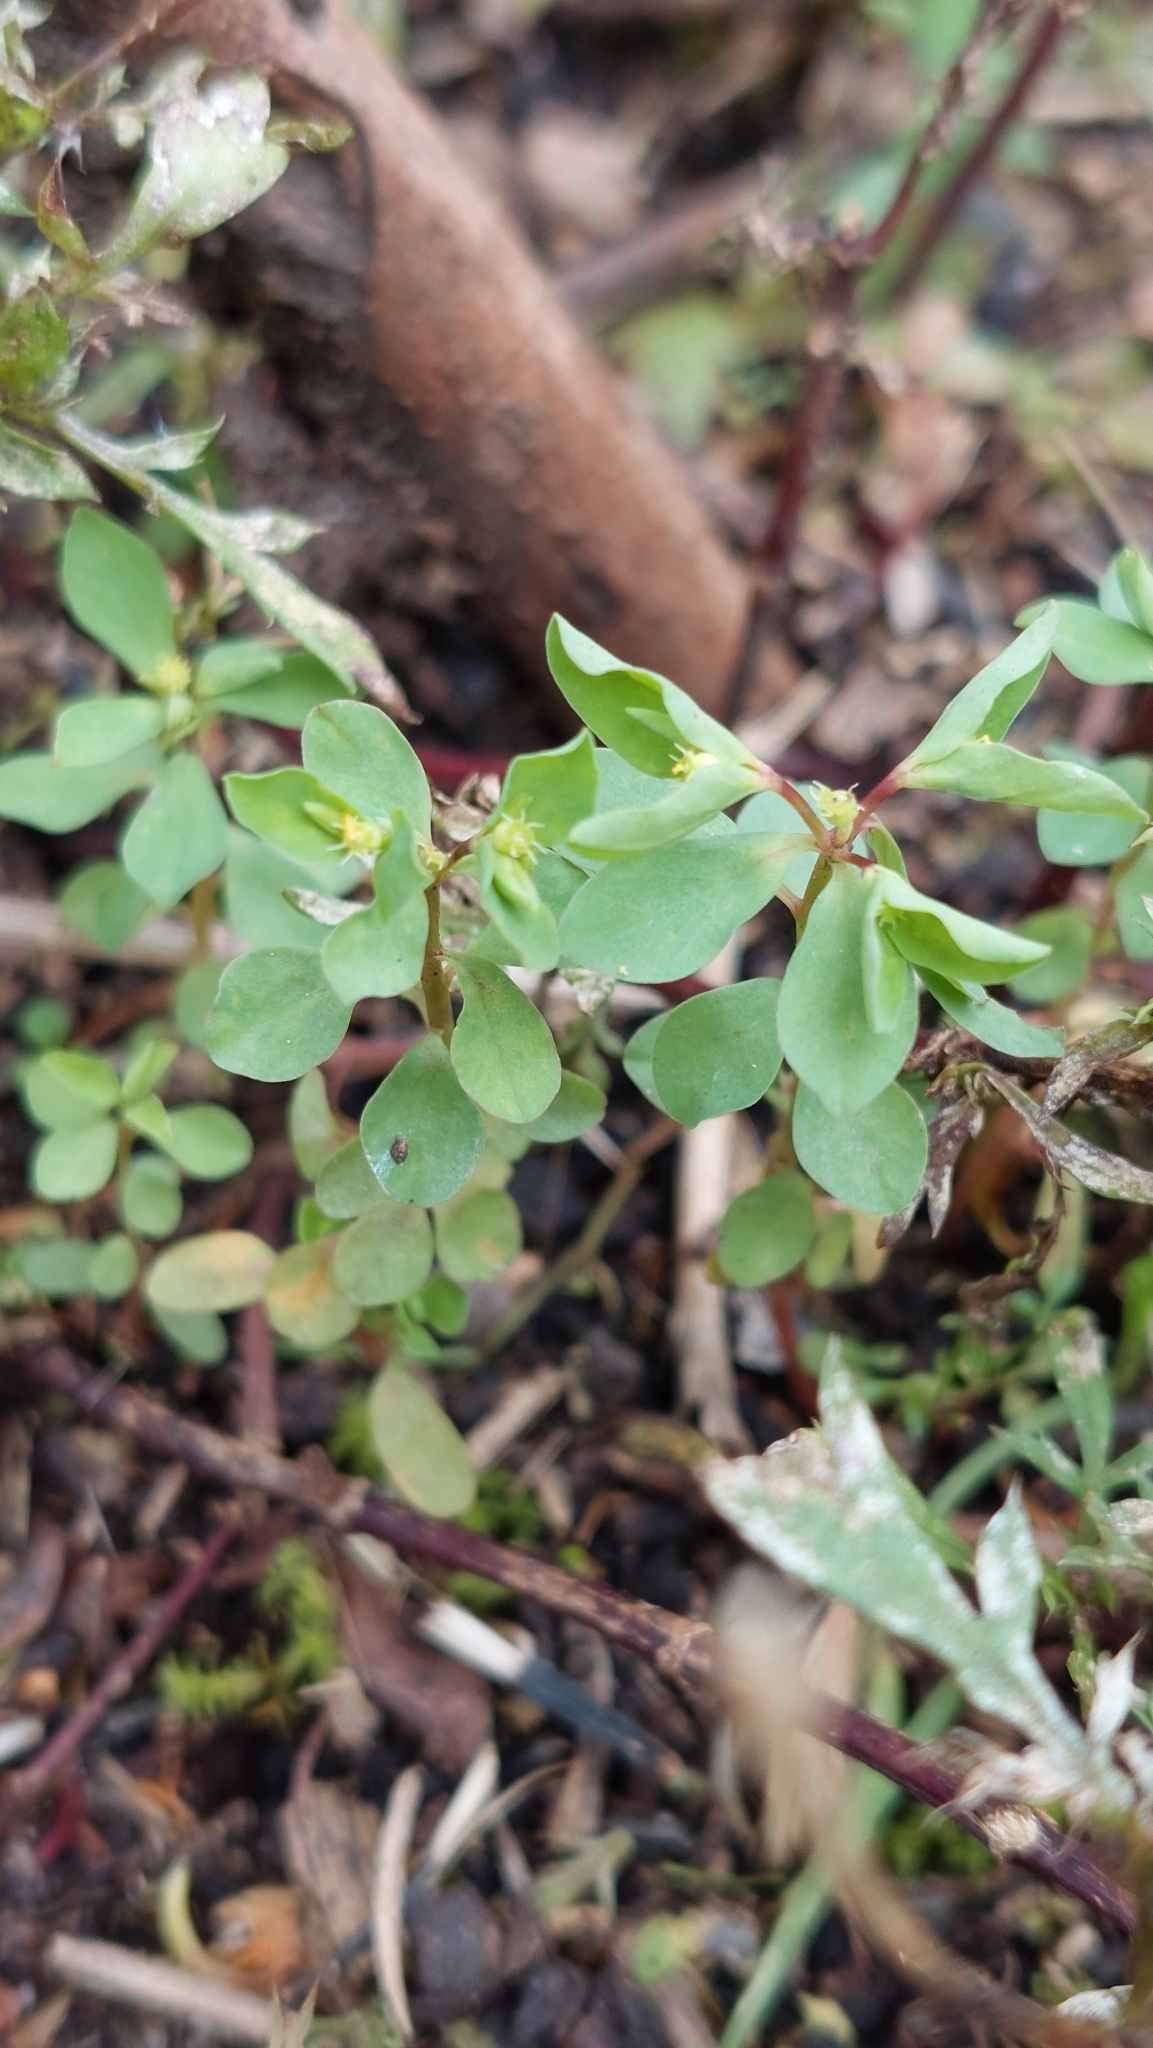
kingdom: Plantae
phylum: Tracheophyta
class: Magnoliopsida
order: Malpighiales
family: Euphorbiaceae
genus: Euphorbia
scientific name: Euphorbia peplus
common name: Petty spurge
